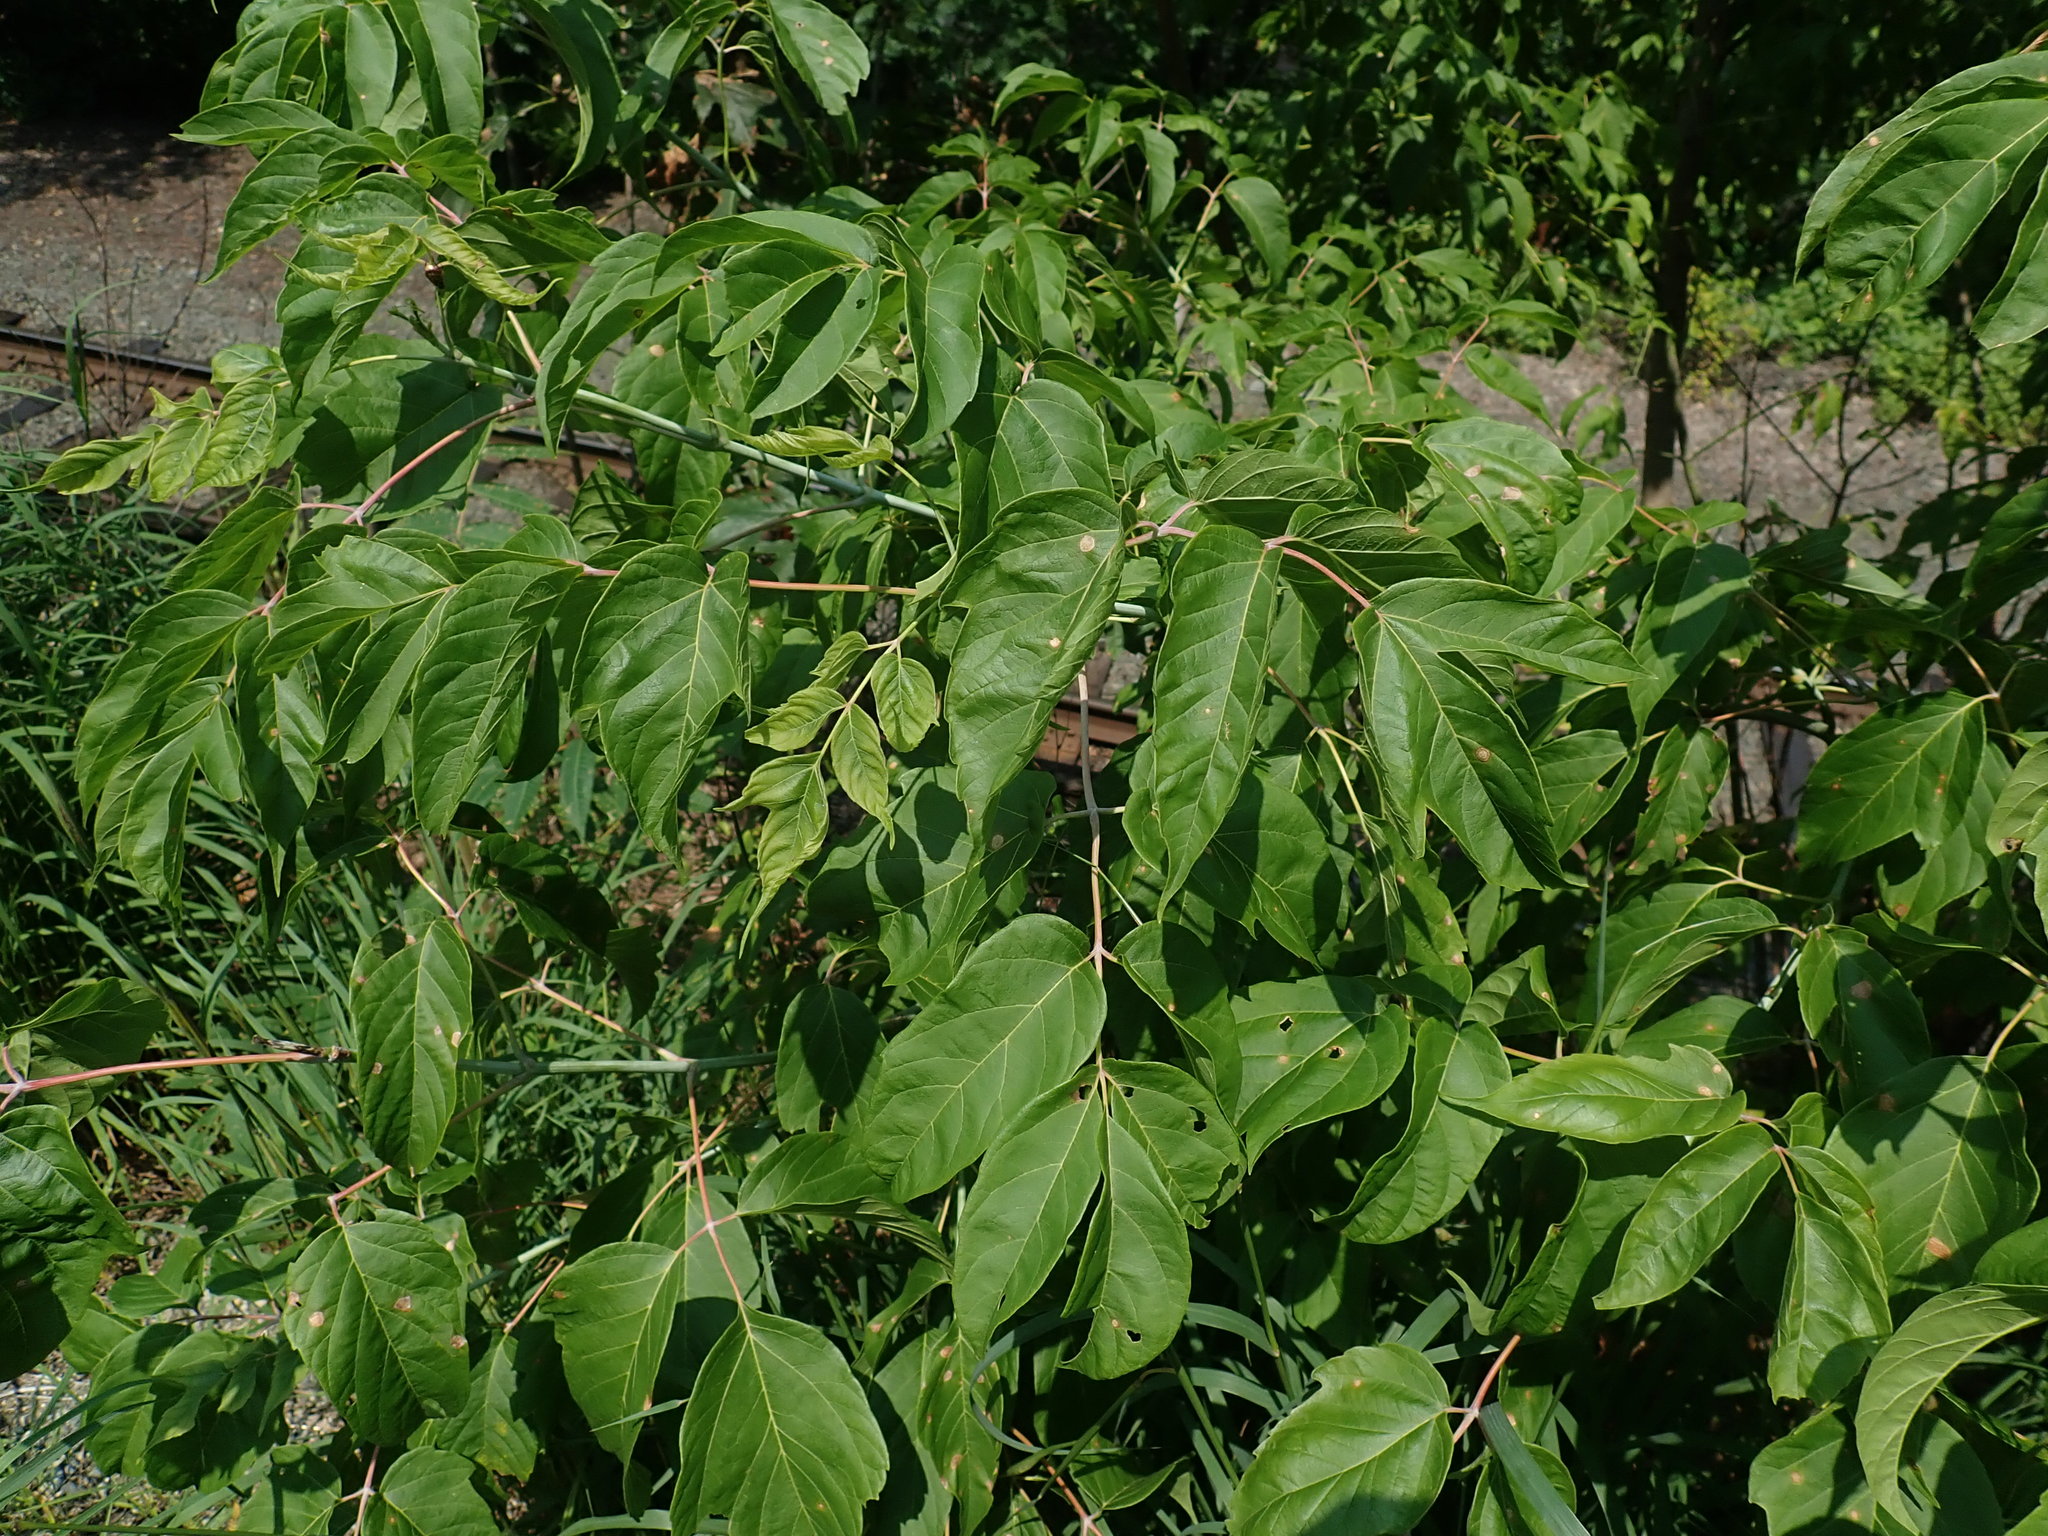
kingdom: Plantae
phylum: Tracheophyta
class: Magnoliopsida
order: Sapindales
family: Sapindaceae
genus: Acer
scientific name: Acer negundo
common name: Ashleaf maple
